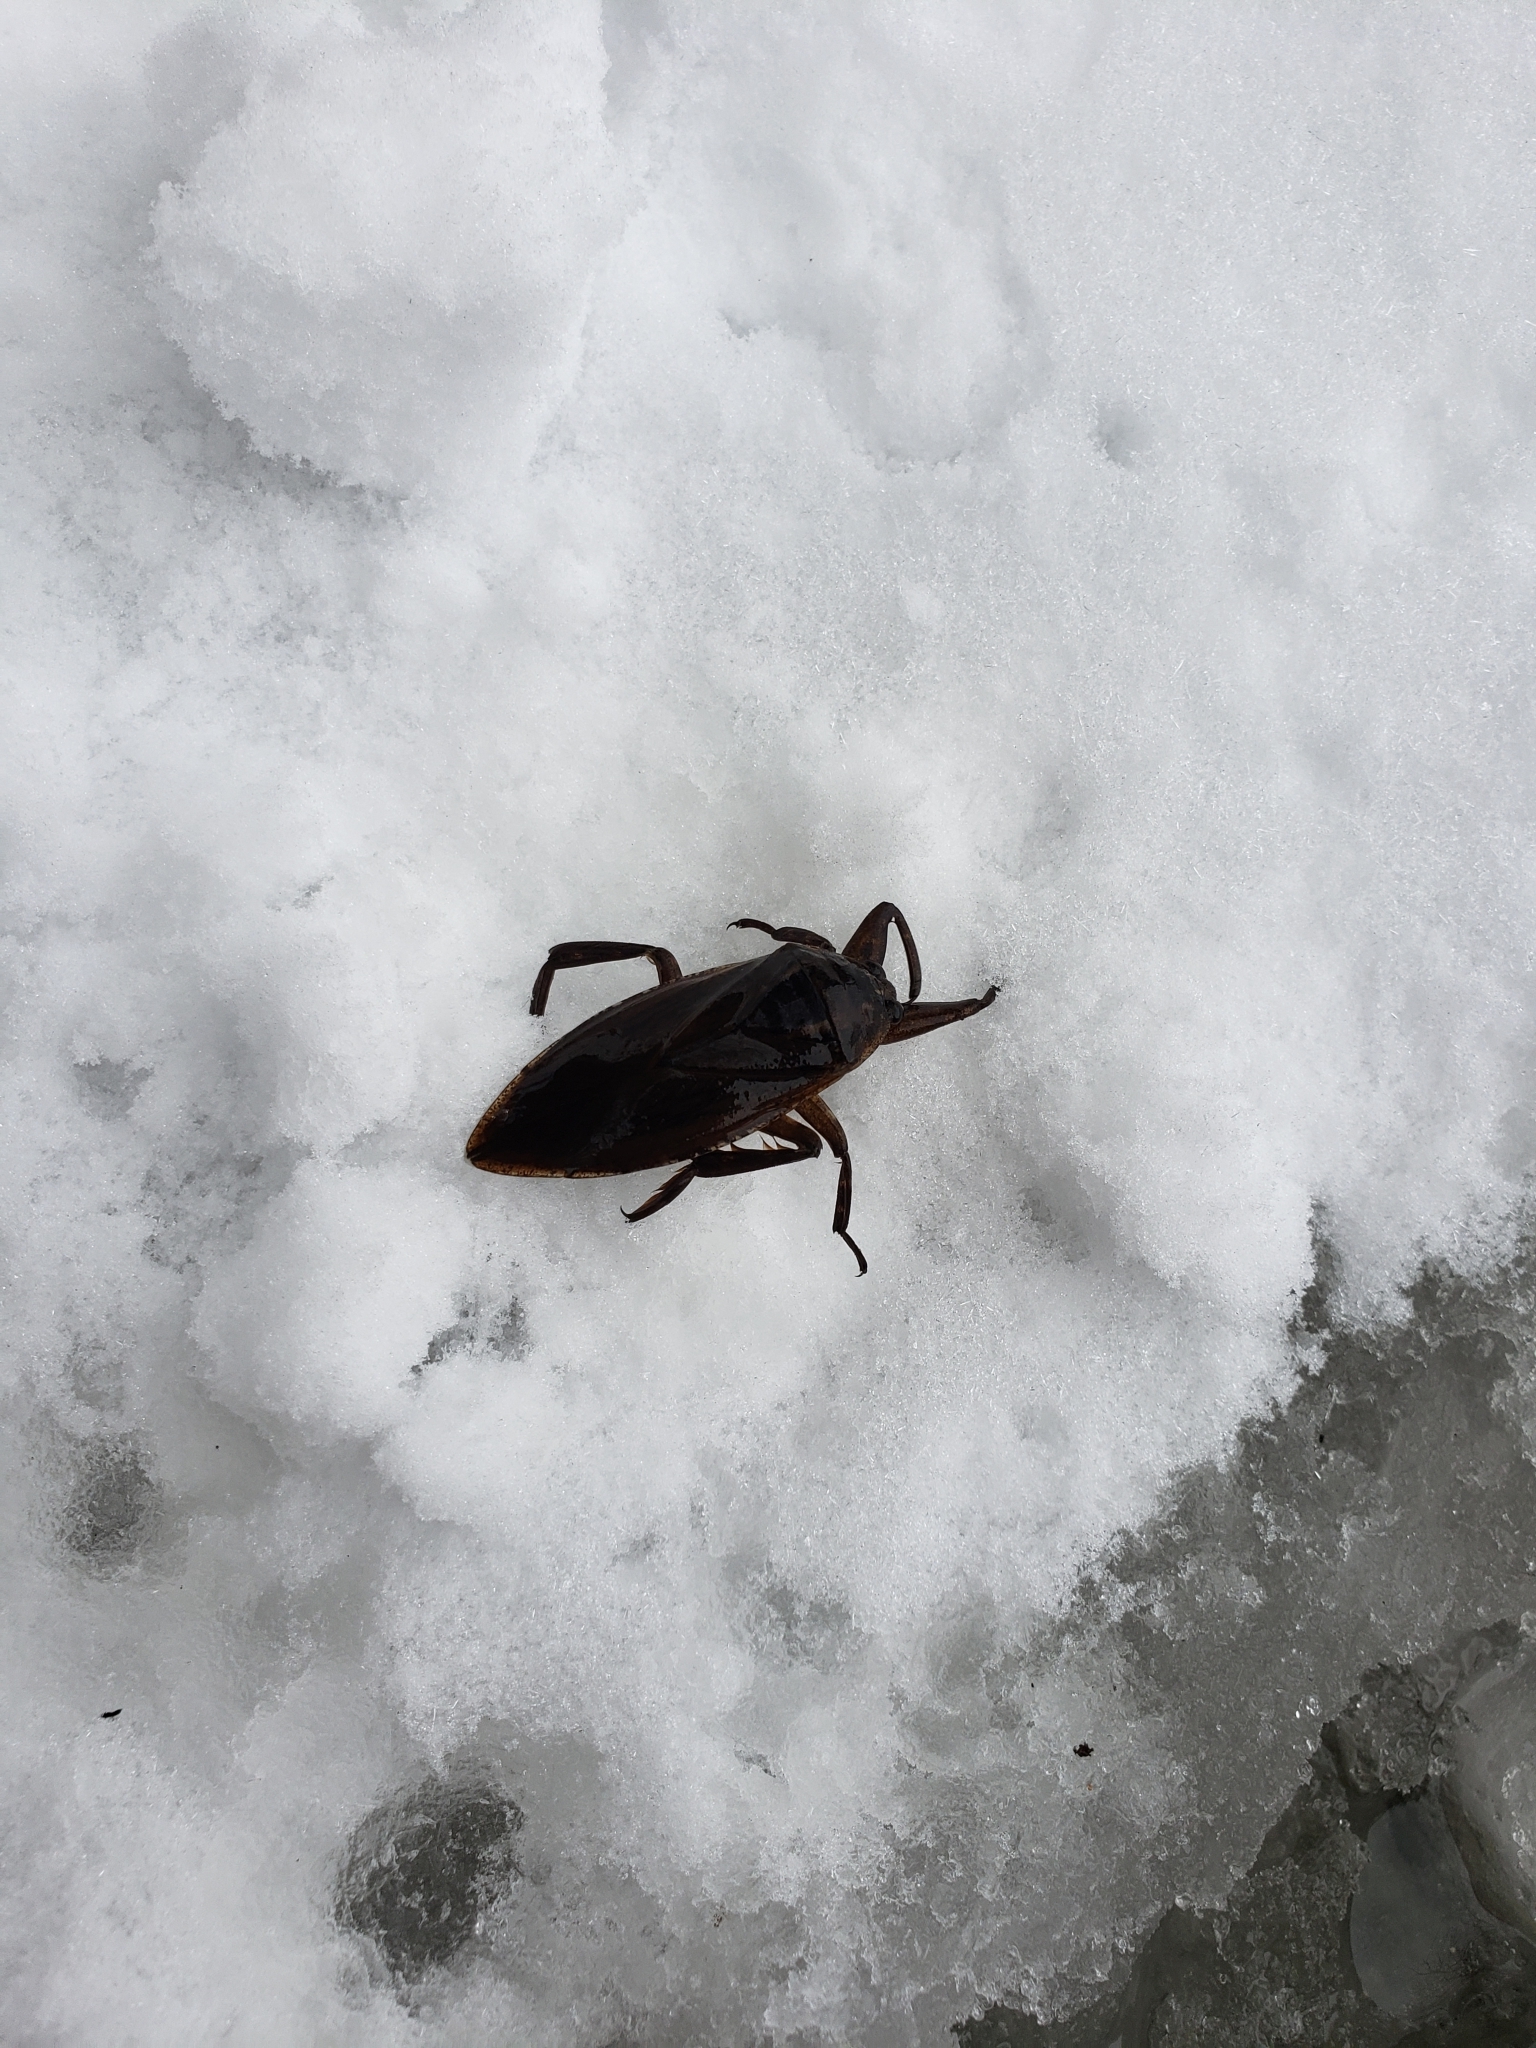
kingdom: Animalia
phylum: Arthropoda
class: Insecta
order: Hemiptera
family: Belostomatidae
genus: Lethocerus
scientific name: Lethocerus americanus
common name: Giant water bug
